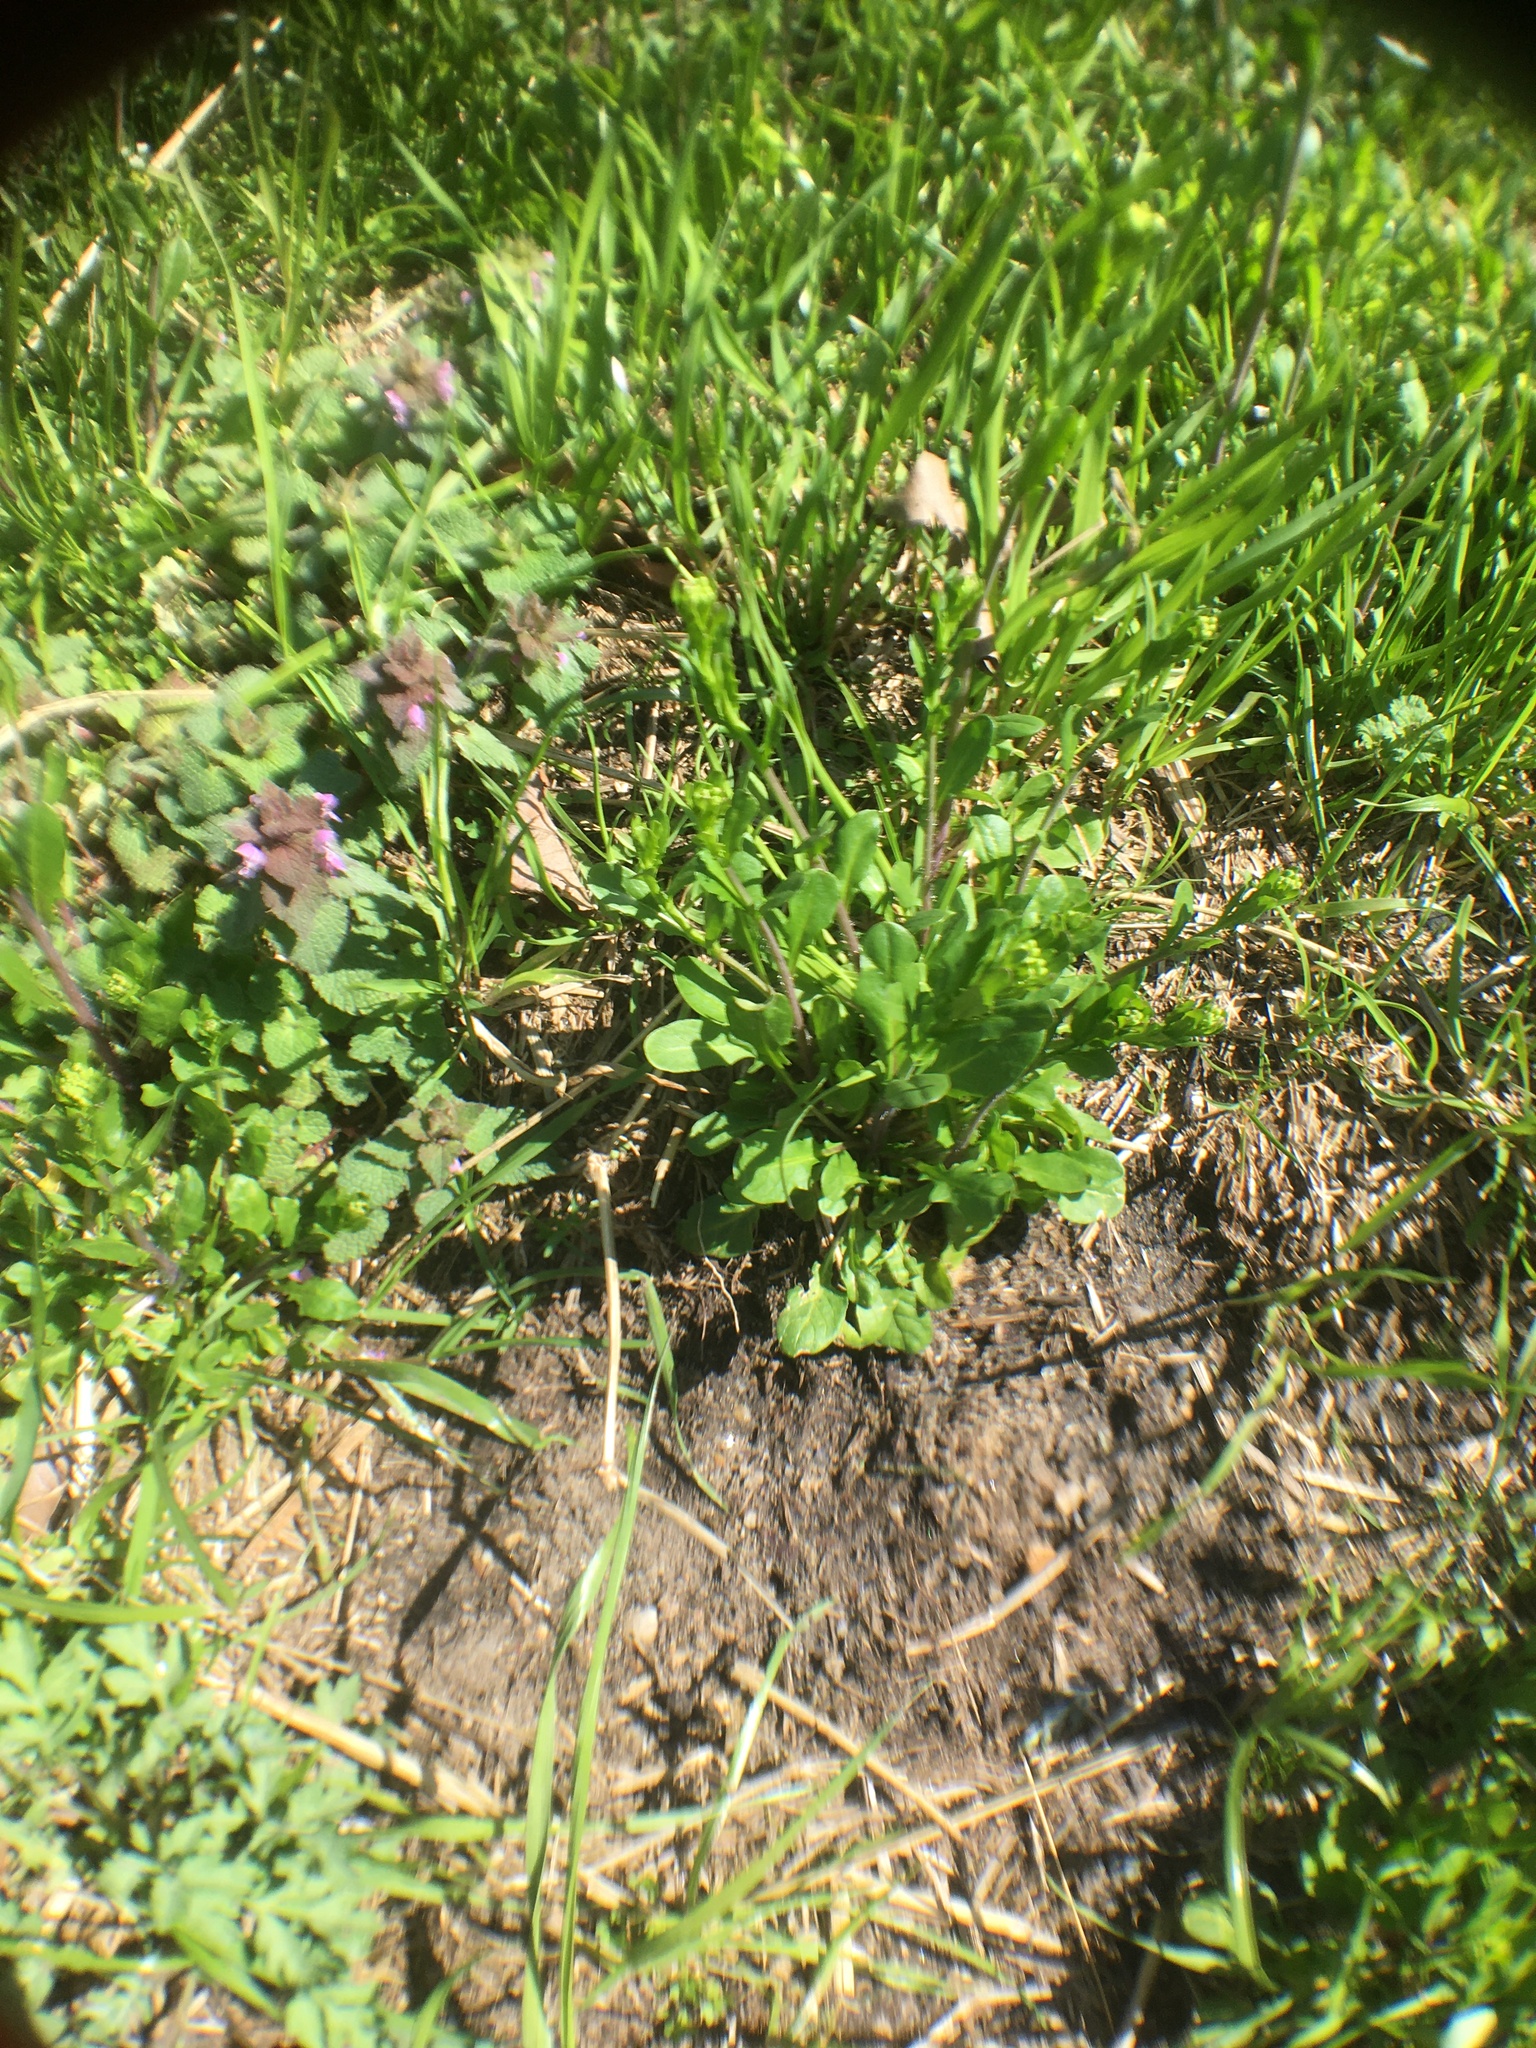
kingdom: Plantae
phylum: Tracheophyta
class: Magnoliopsida
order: Brassicales
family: Brassicaceae
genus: Mummenhoffia
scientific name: Mummenhoffia alliacea
